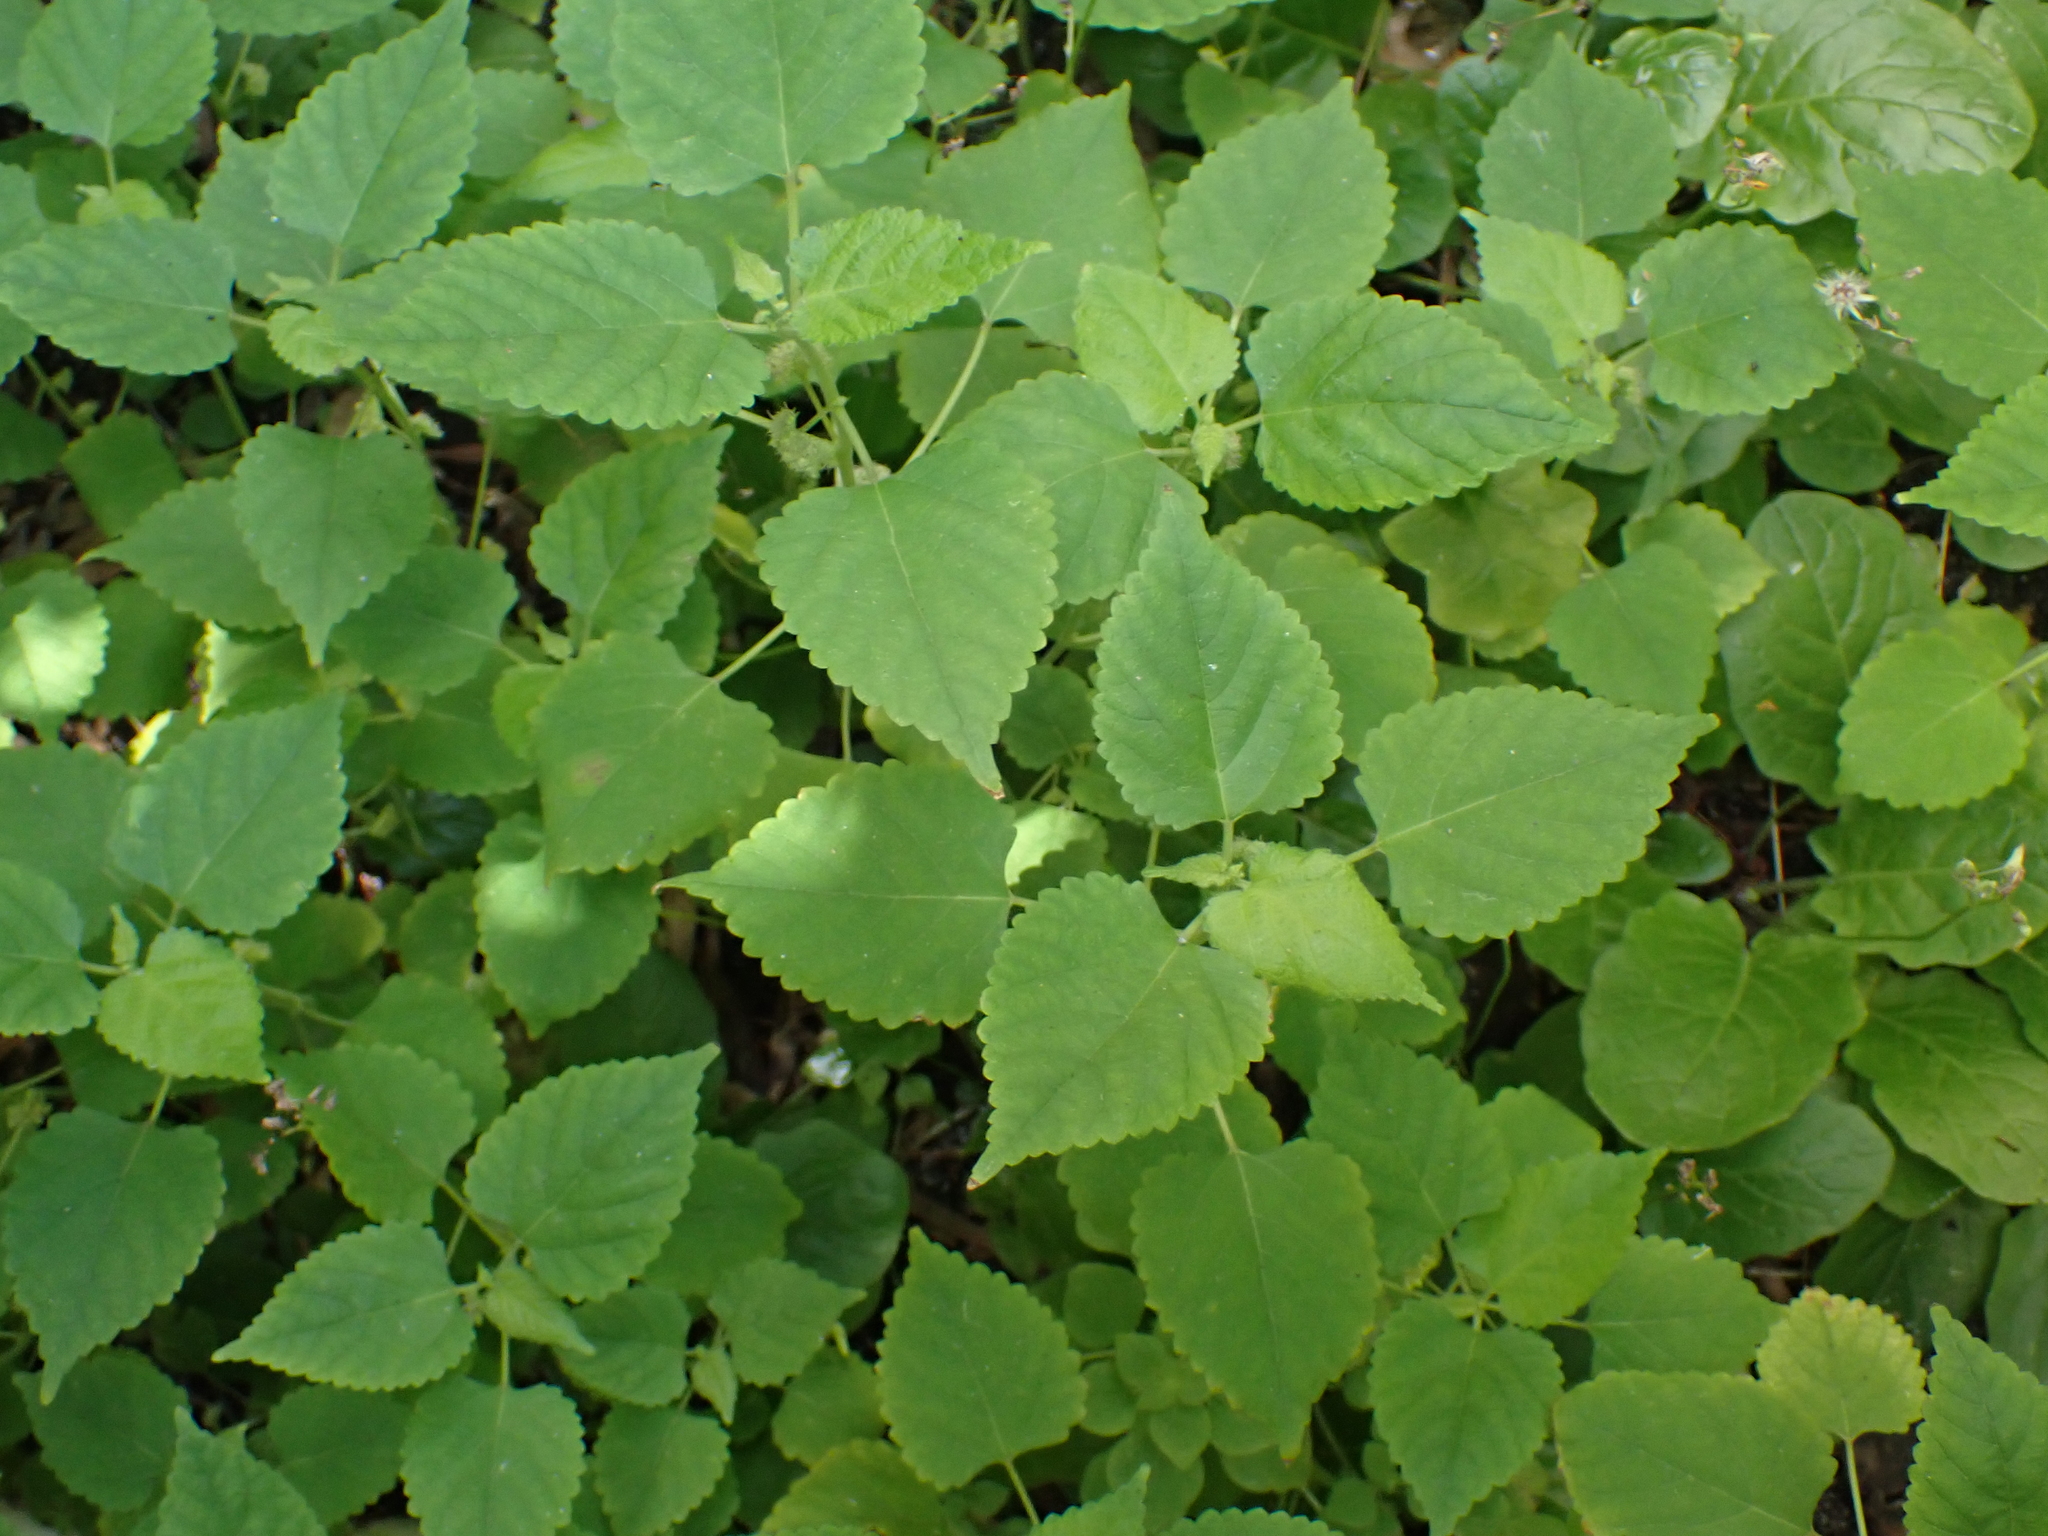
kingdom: Plantae
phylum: Tracheophyta
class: Magnoliopsida
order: Rosales
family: Moraceae
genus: Fatoua
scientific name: Fatoua villosa
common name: Hairy crabweed
